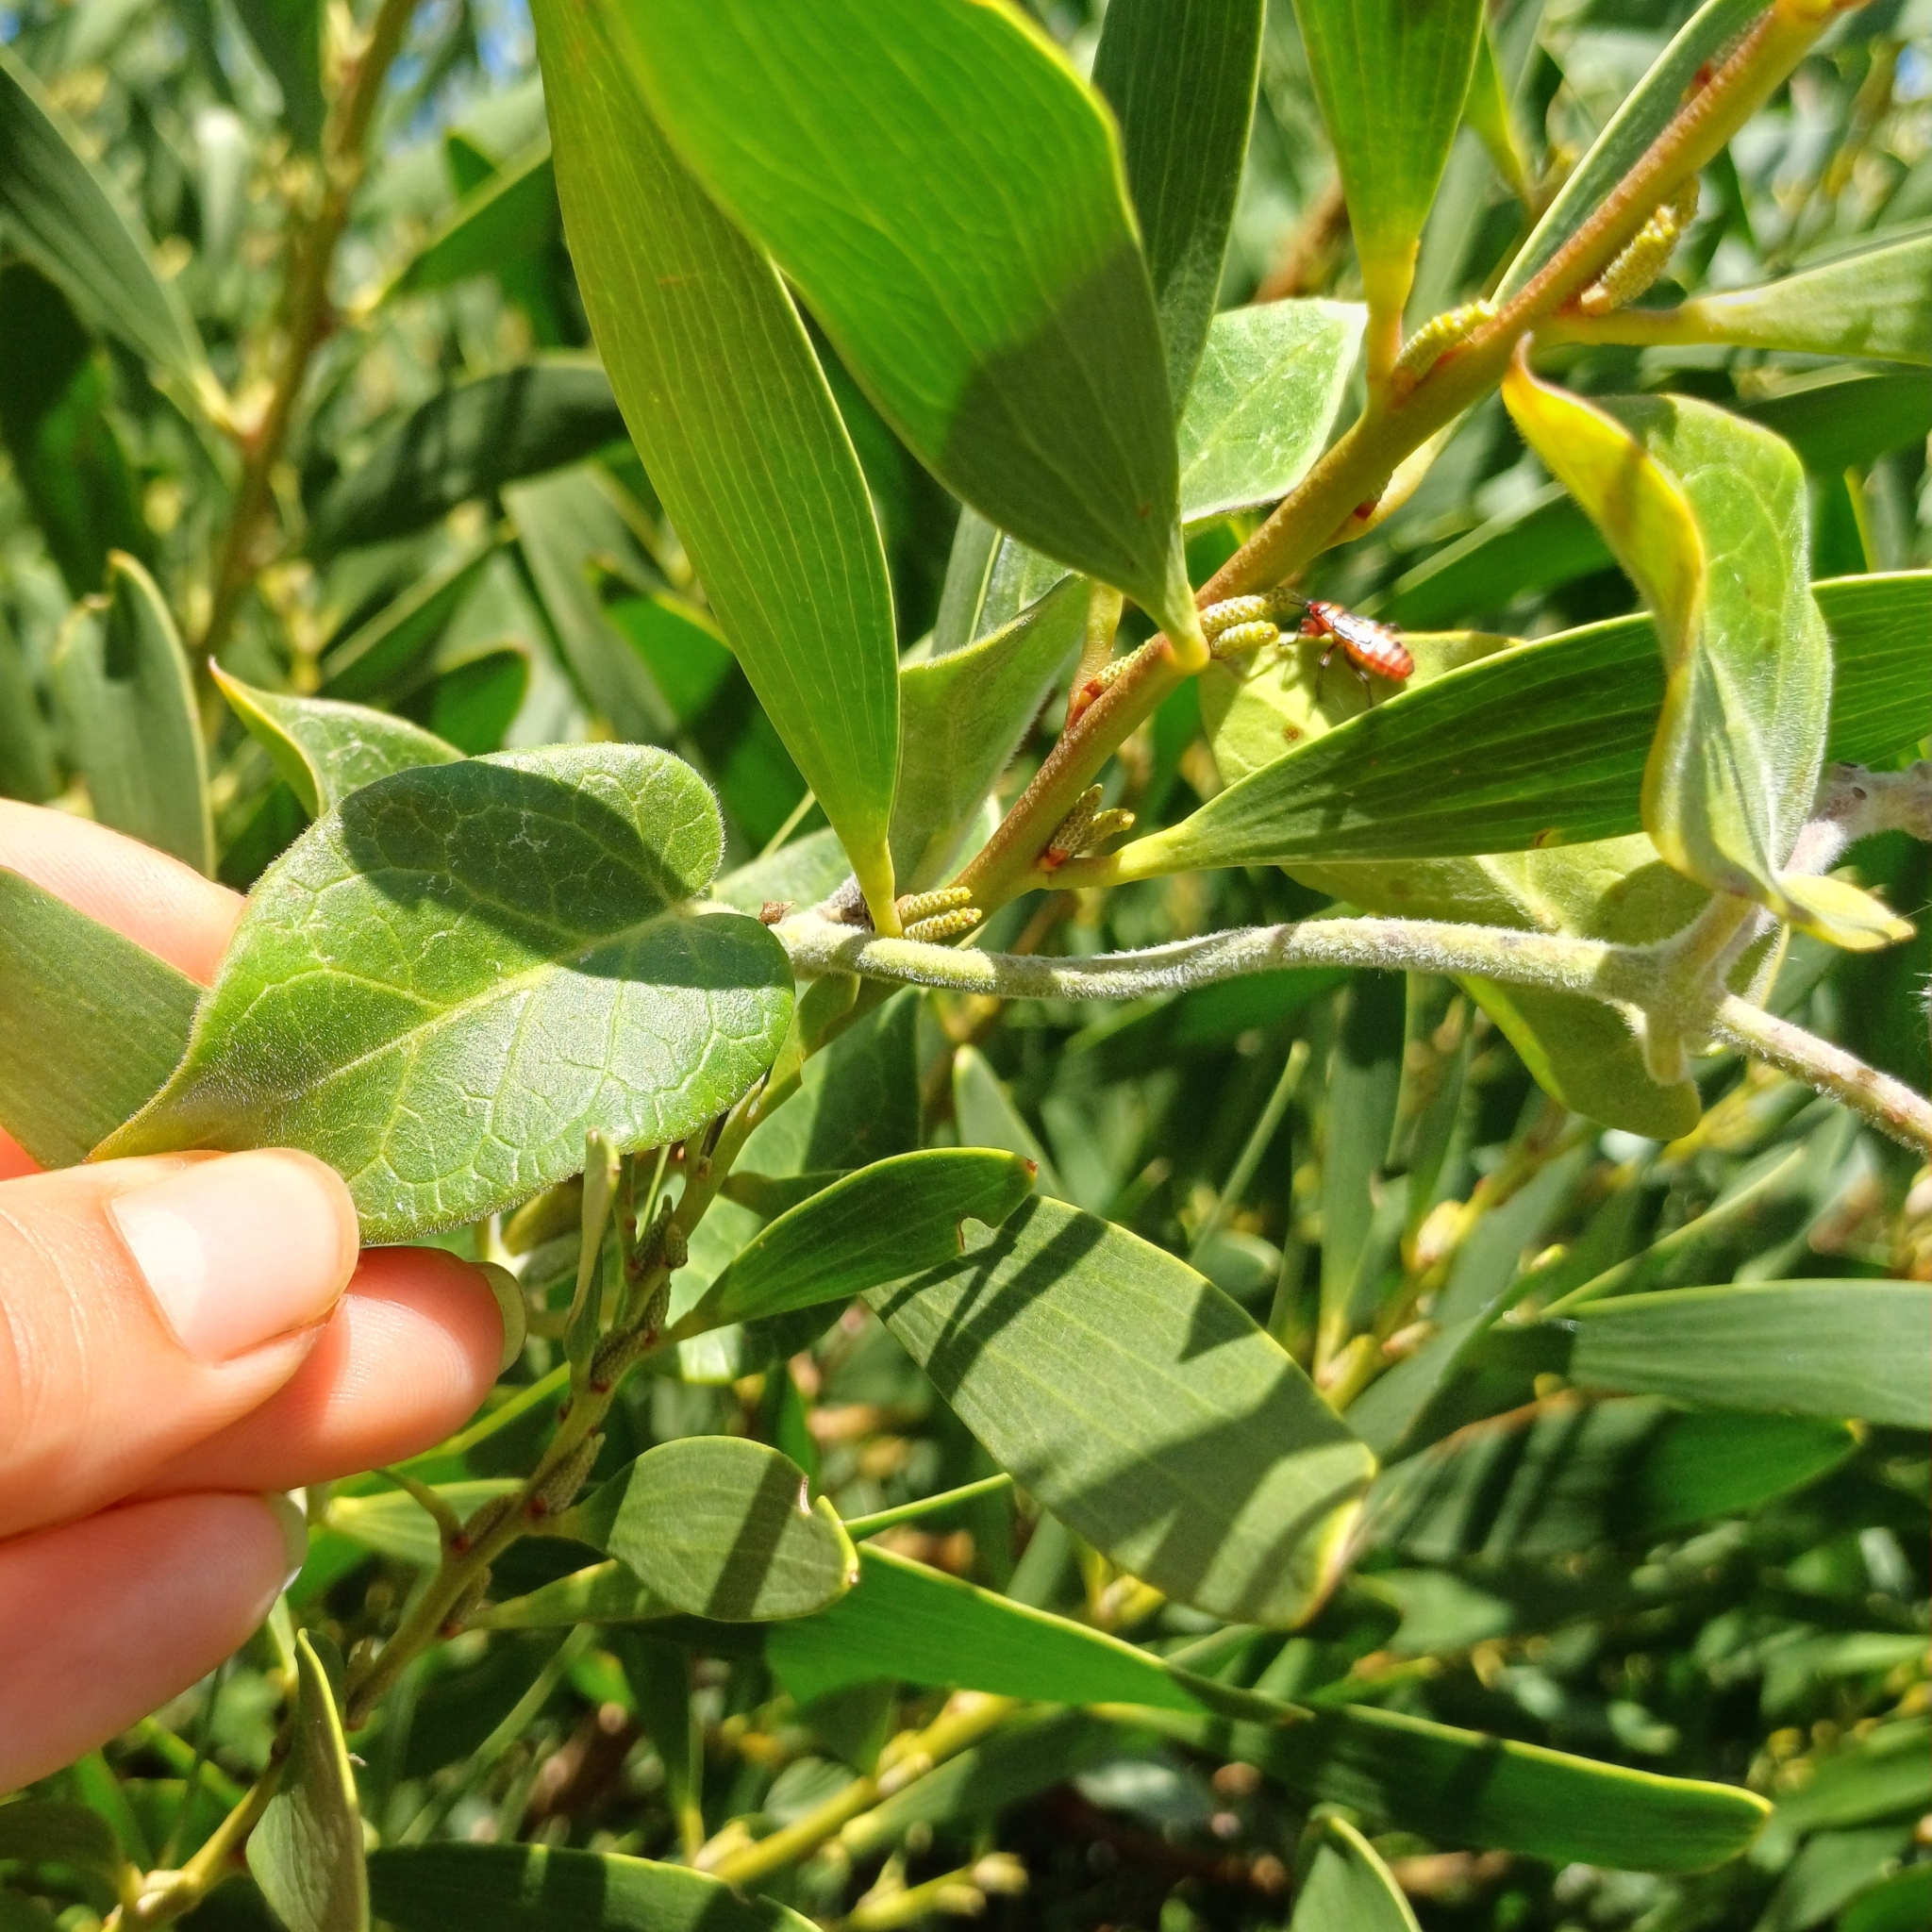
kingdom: Plantae
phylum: Tracheophyta
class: Magnoliopsida
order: Gentianales
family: Apocynaceae
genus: Oxypetalum
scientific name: Oxypetalum tomentosum
